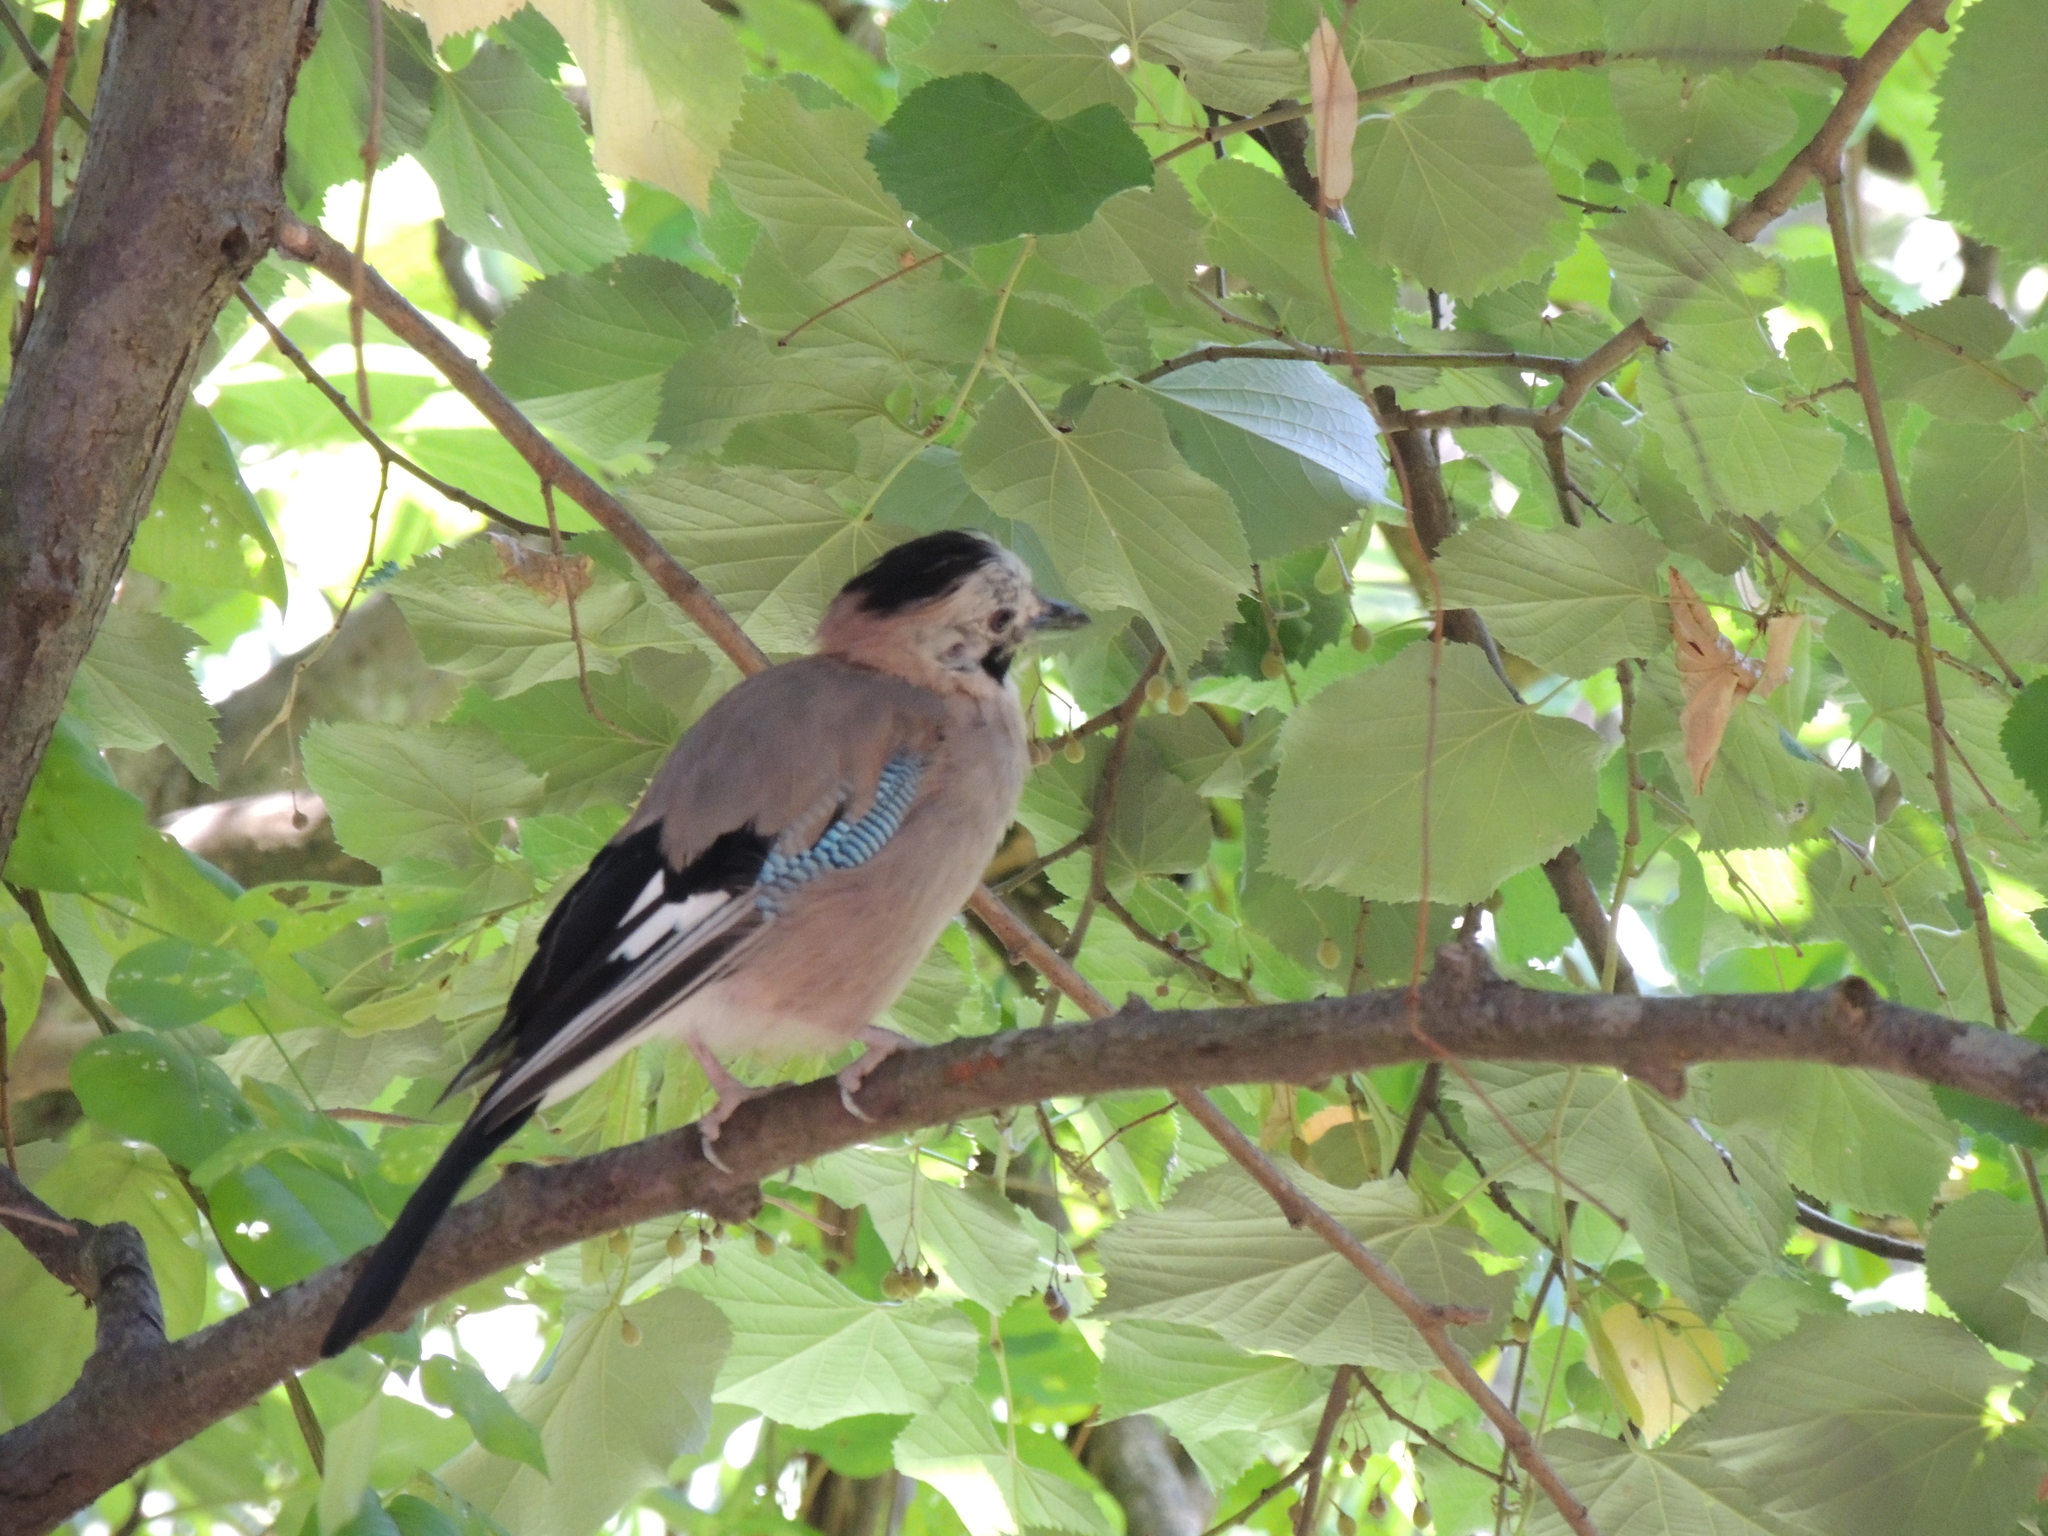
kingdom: Animalia
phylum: Chordata
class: Aves
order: Passeriformes
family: Corvidae
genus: Garrulus
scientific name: Garrulus glandarius
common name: Eurasian jay
